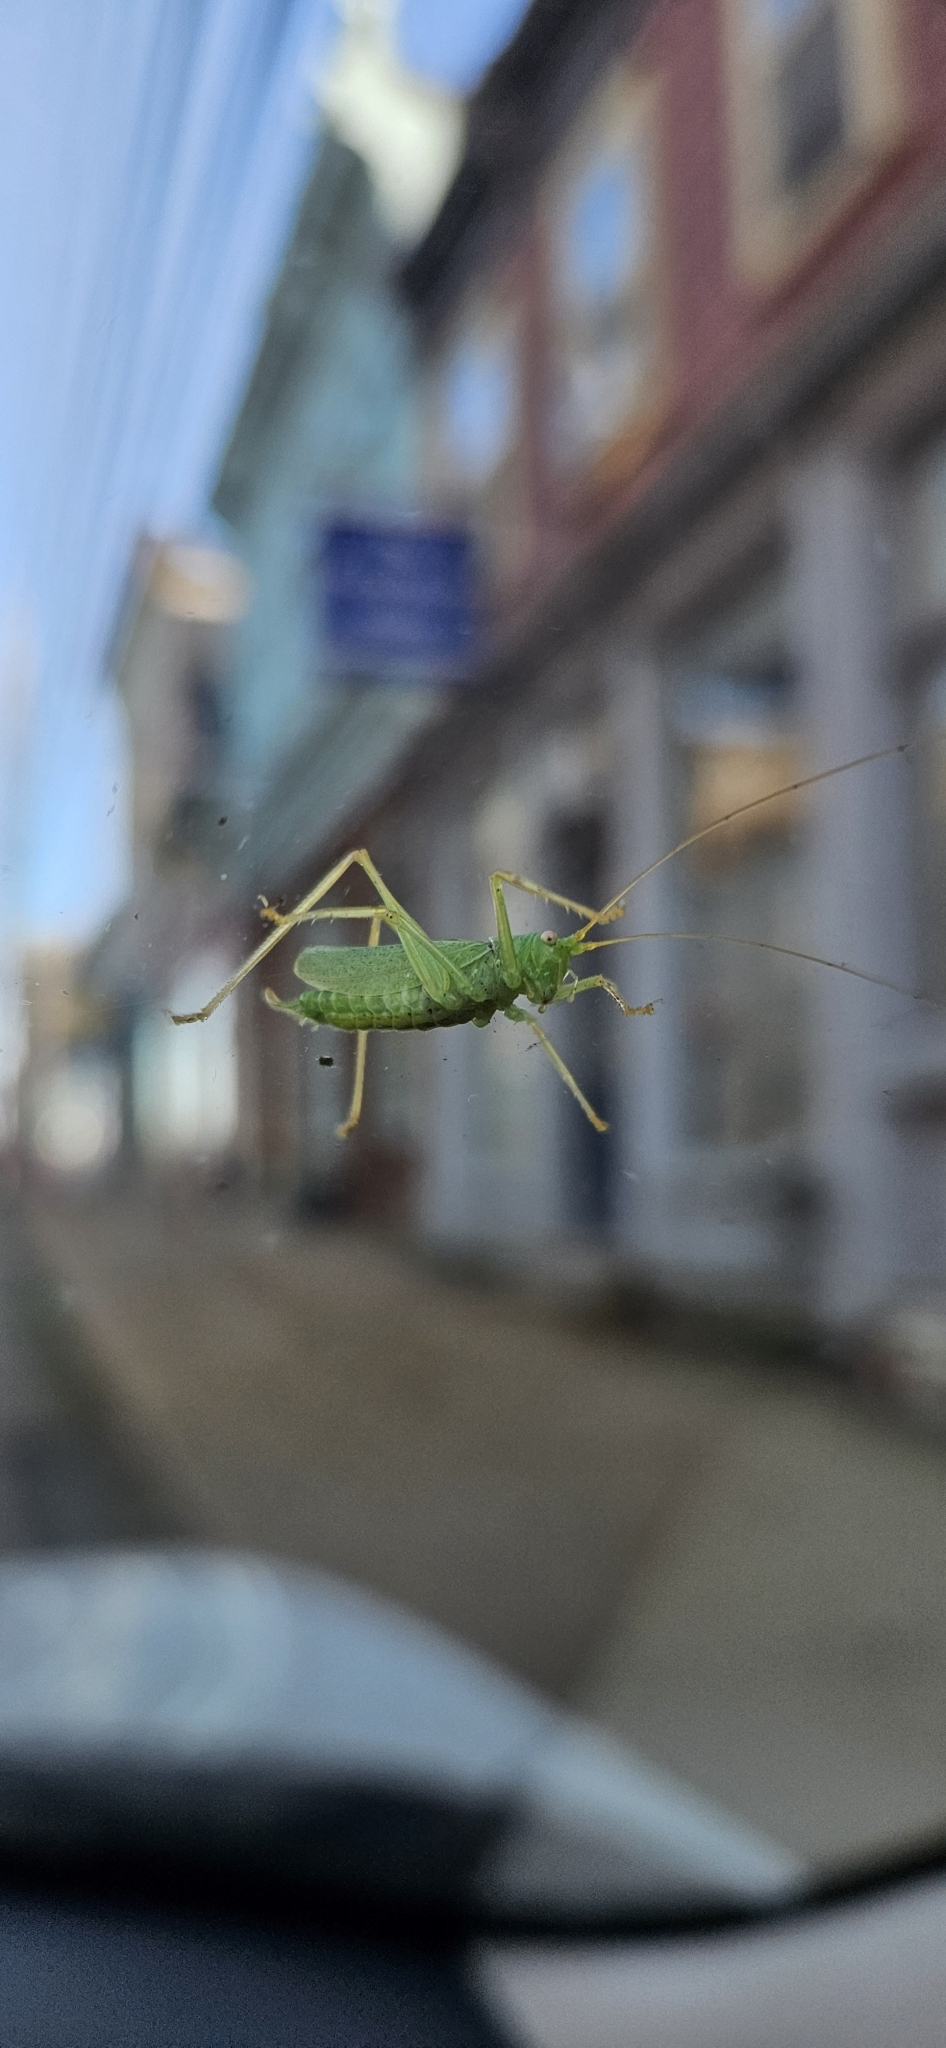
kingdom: Animalia
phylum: Arthropoda
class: Insecta
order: Orthoptera
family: Tettigoniidae
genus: Meconema
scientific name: Meconema thalassinum
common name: Oak bush-cricket
